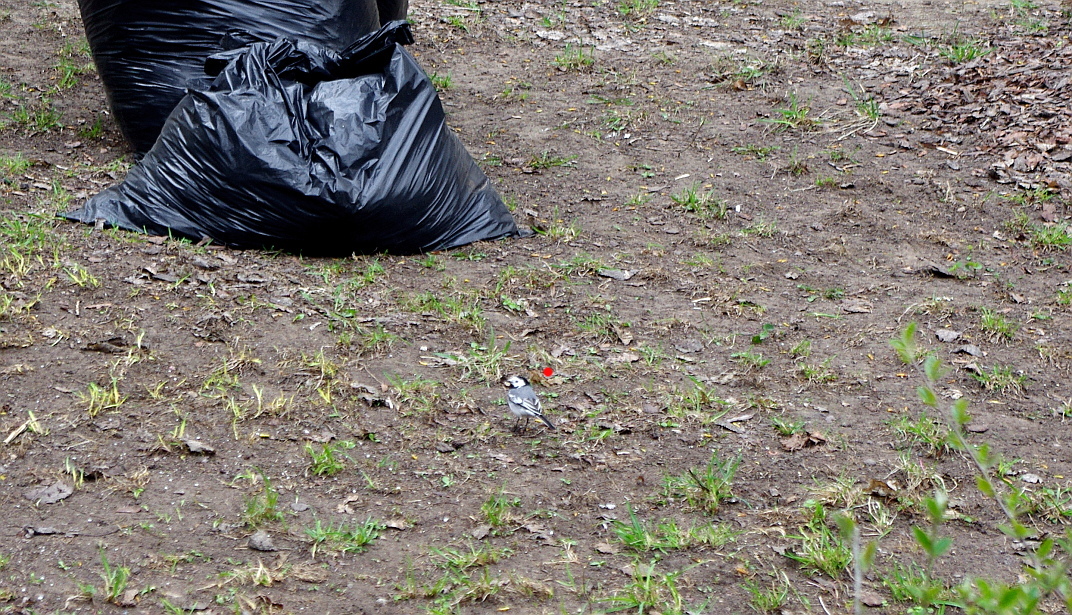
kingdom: Animalia
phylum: Chordata
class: Aves
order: Passeriformes
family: Motacillidae
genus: Motacilla
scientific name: Motacilla alba
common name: White wagtail
